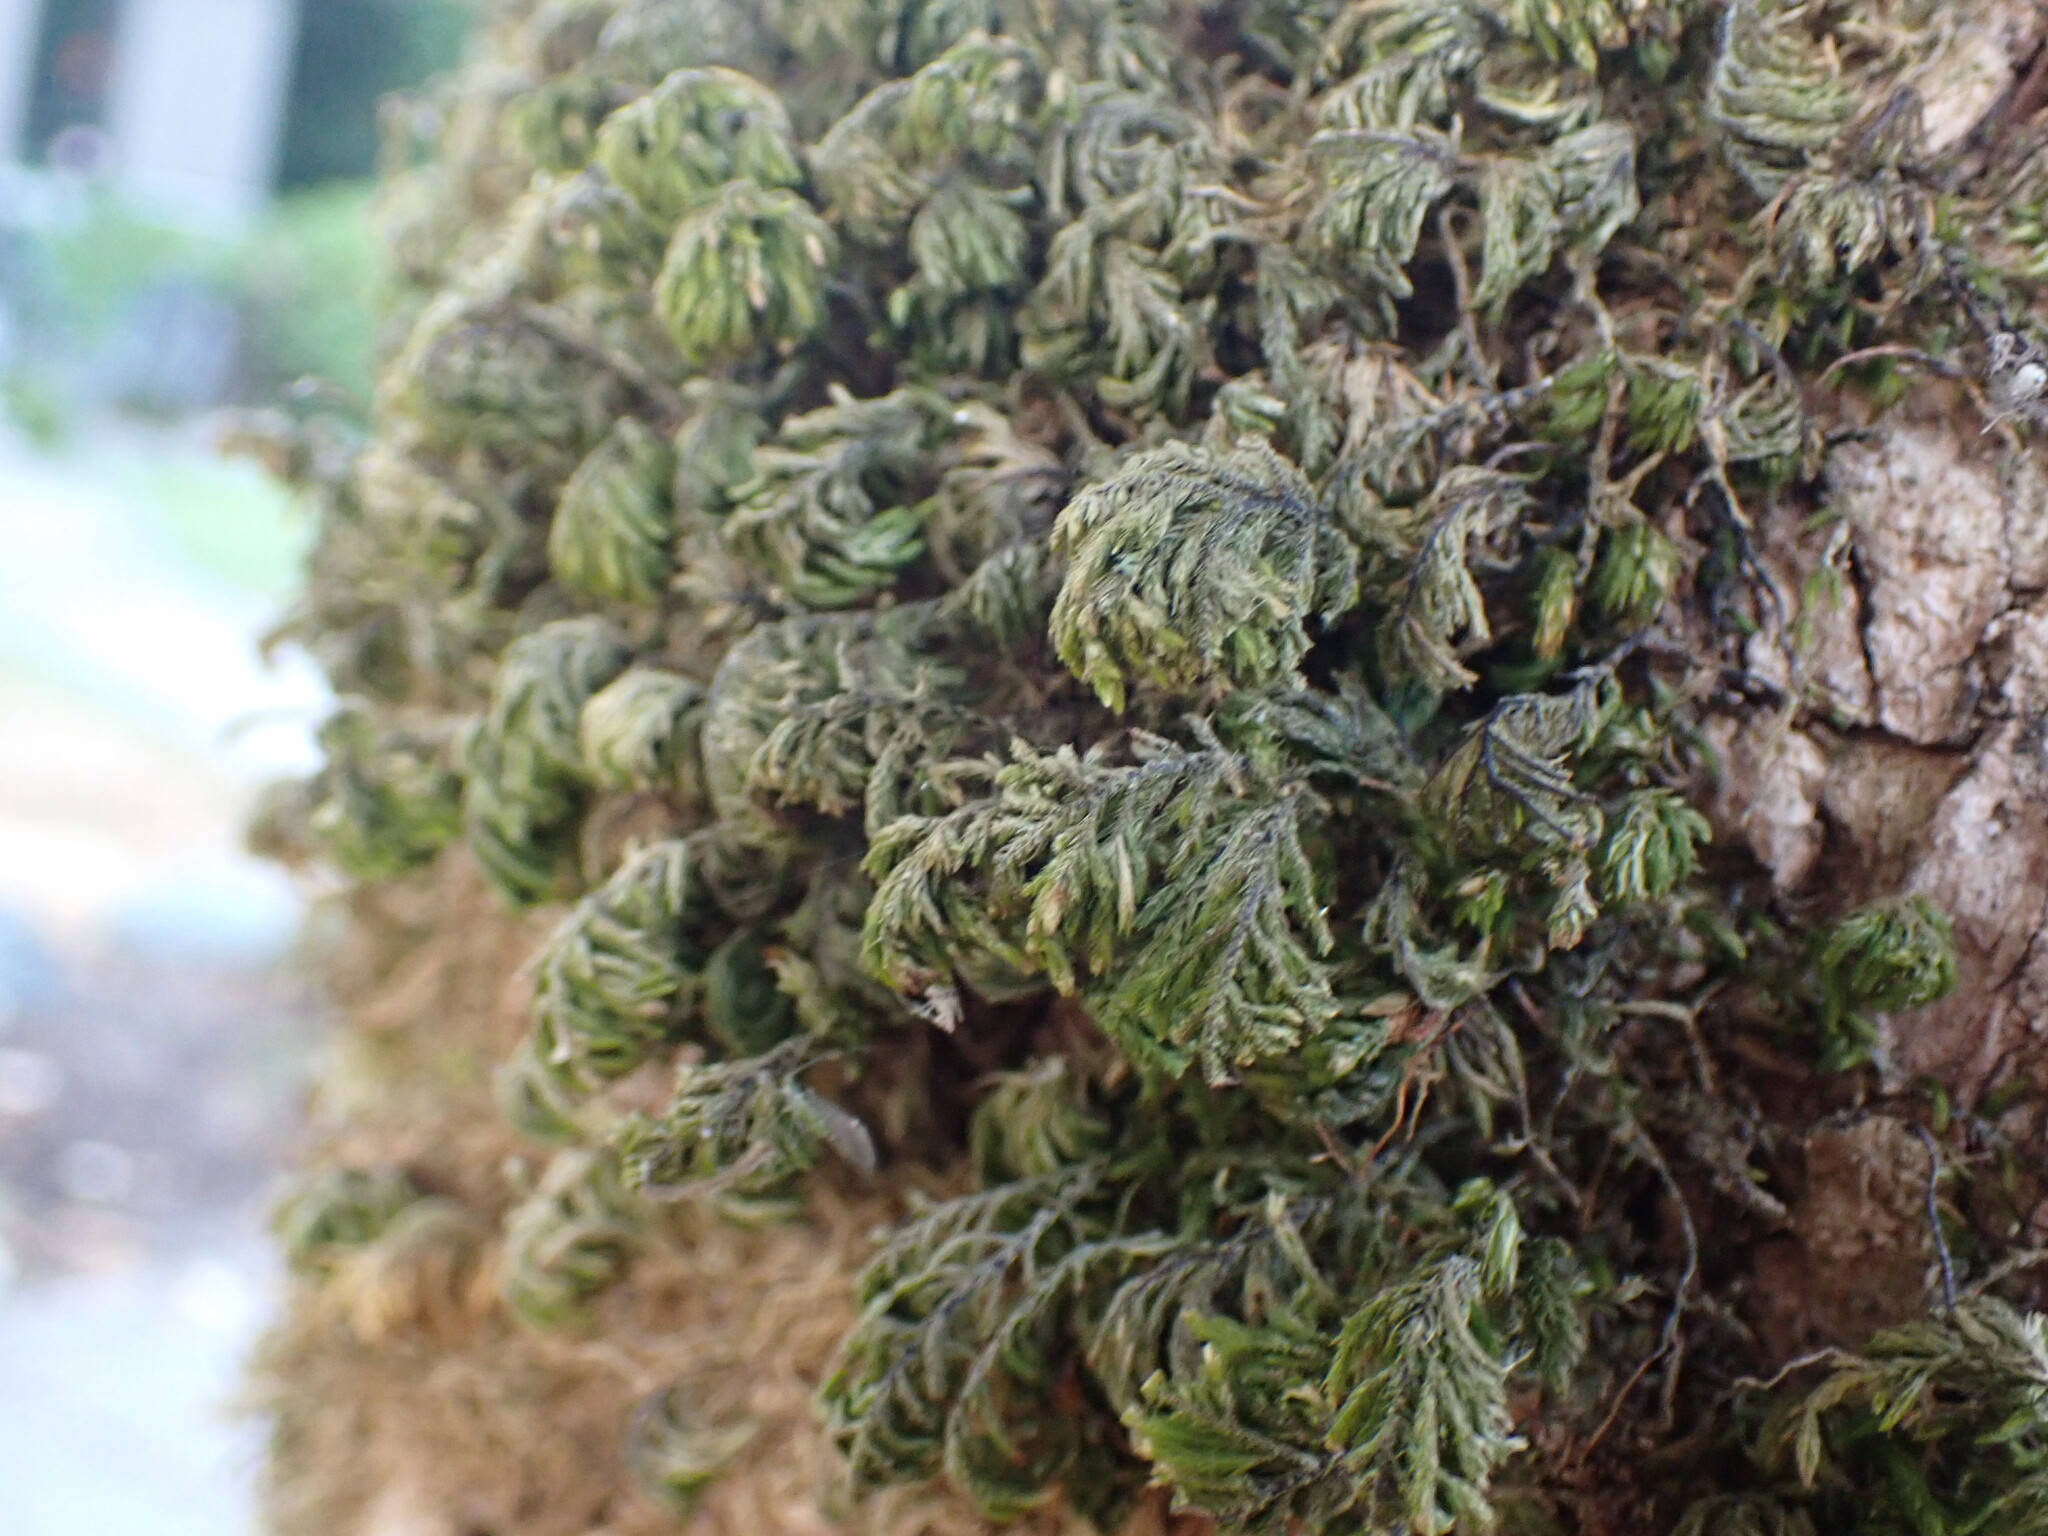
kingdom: Plantae
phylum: Bryophyta
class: Bryopsida
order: Hypnales
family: Cryphaeaceae
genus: Dendroalsia
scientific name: Dendroalsia abietina
